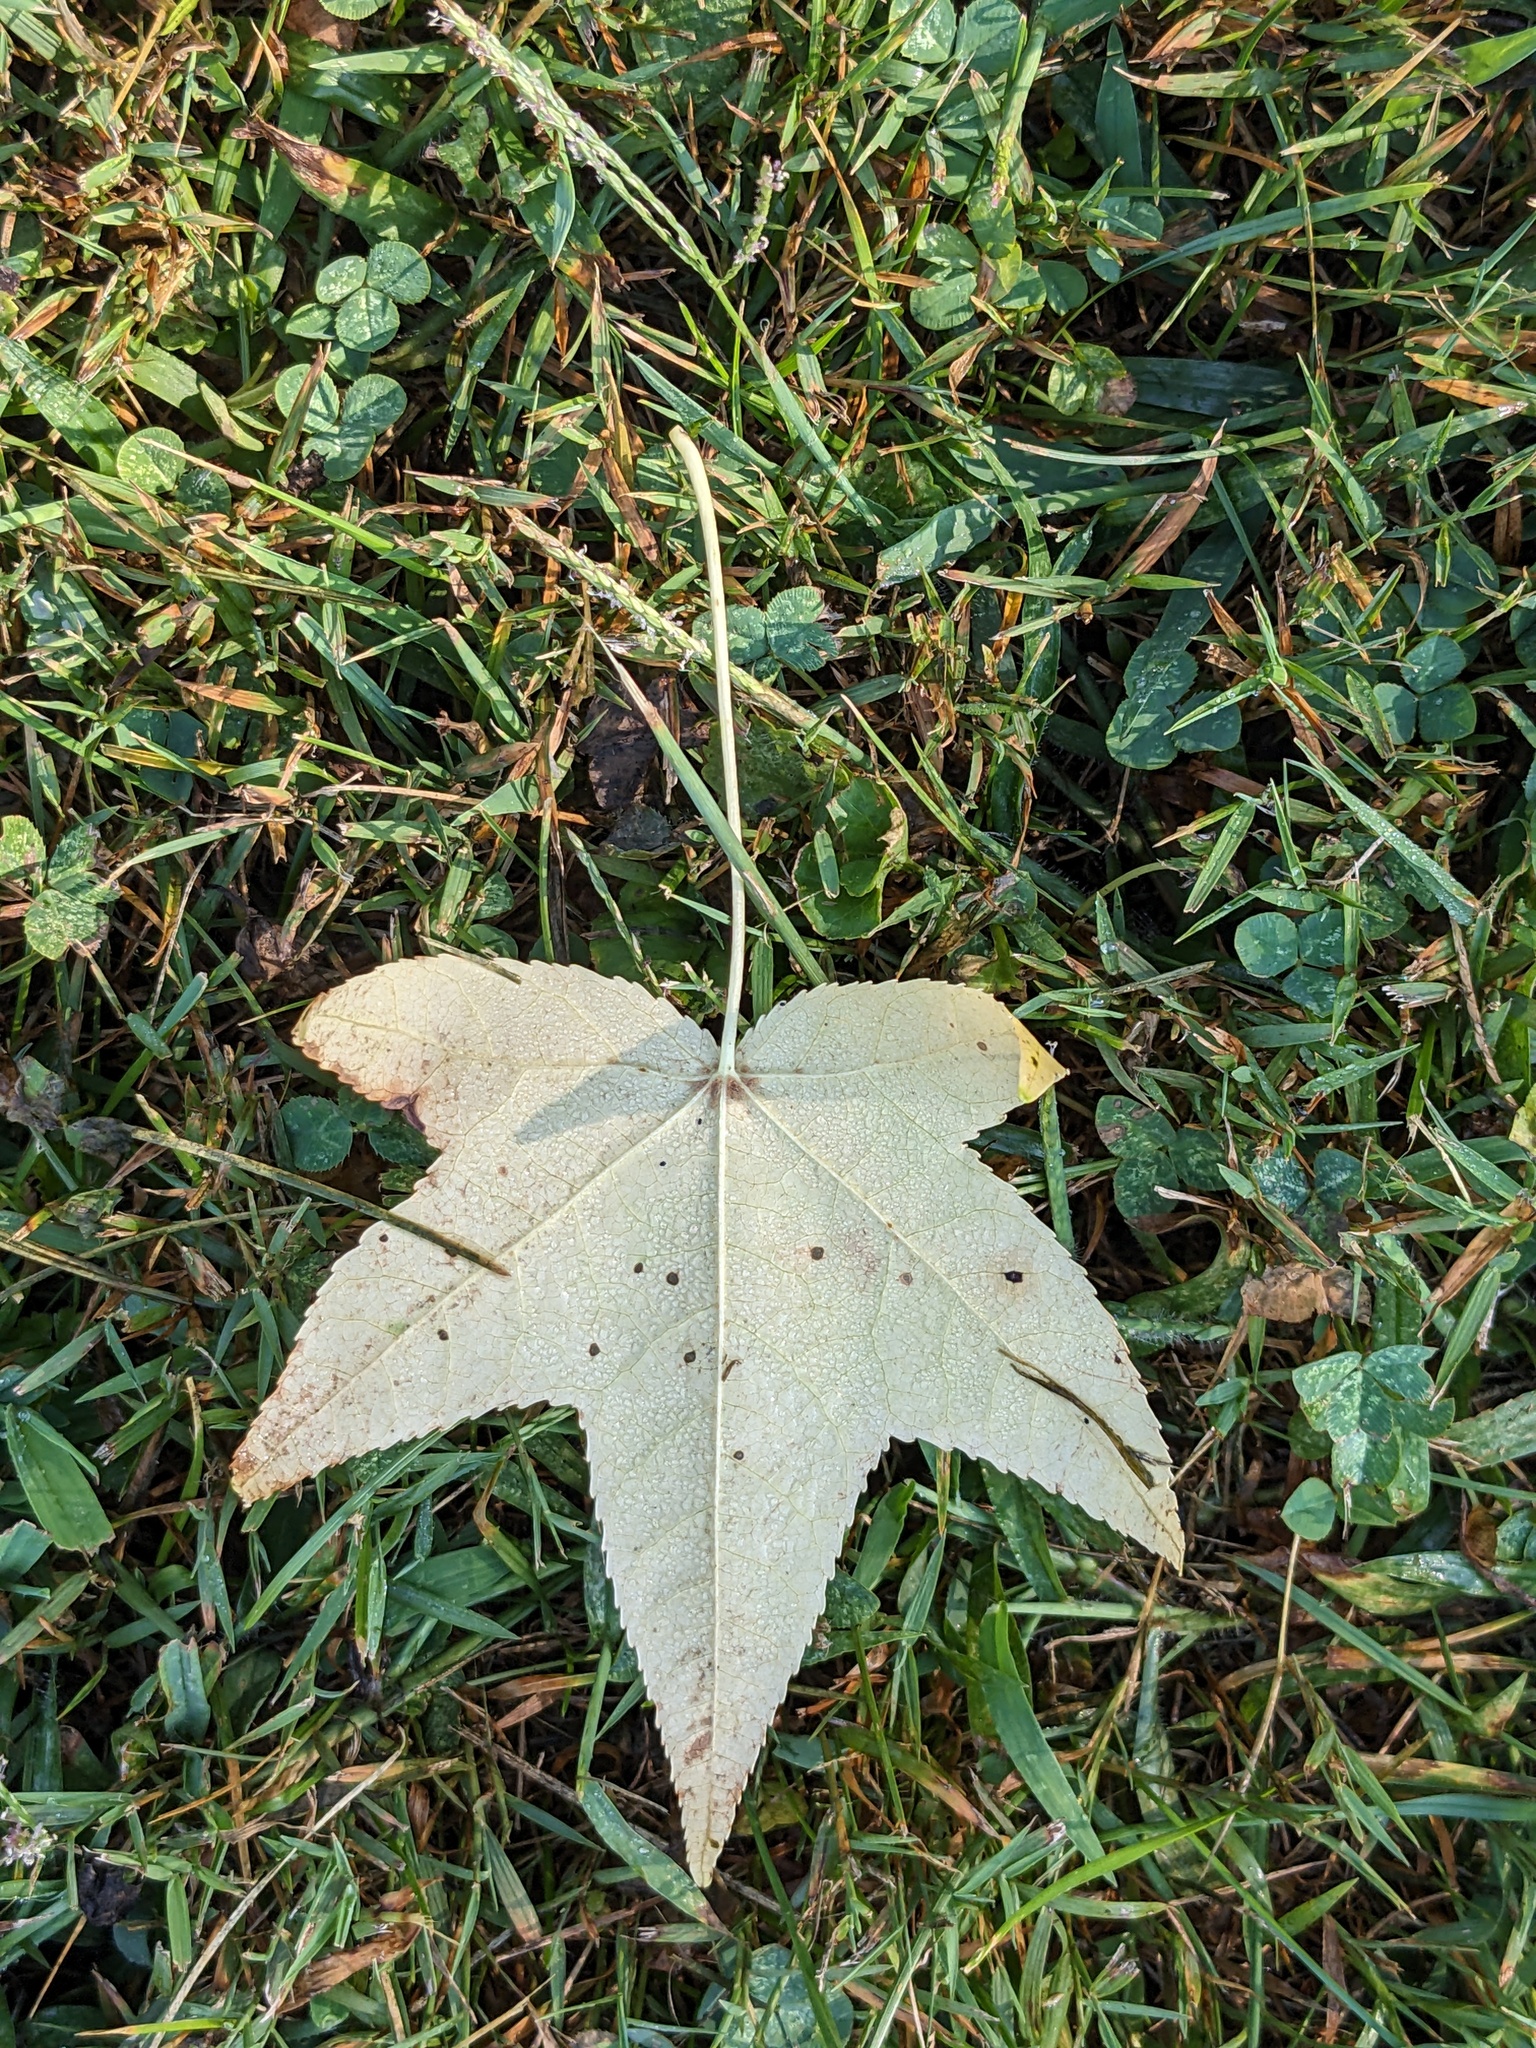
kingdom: Plantae
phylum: Tracheophyta
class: Magnoliopsida
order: Saxifragales
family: Altingiaceae
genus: Liquidambar
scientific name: Liquidambar styraciflua
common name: Sweet gum
